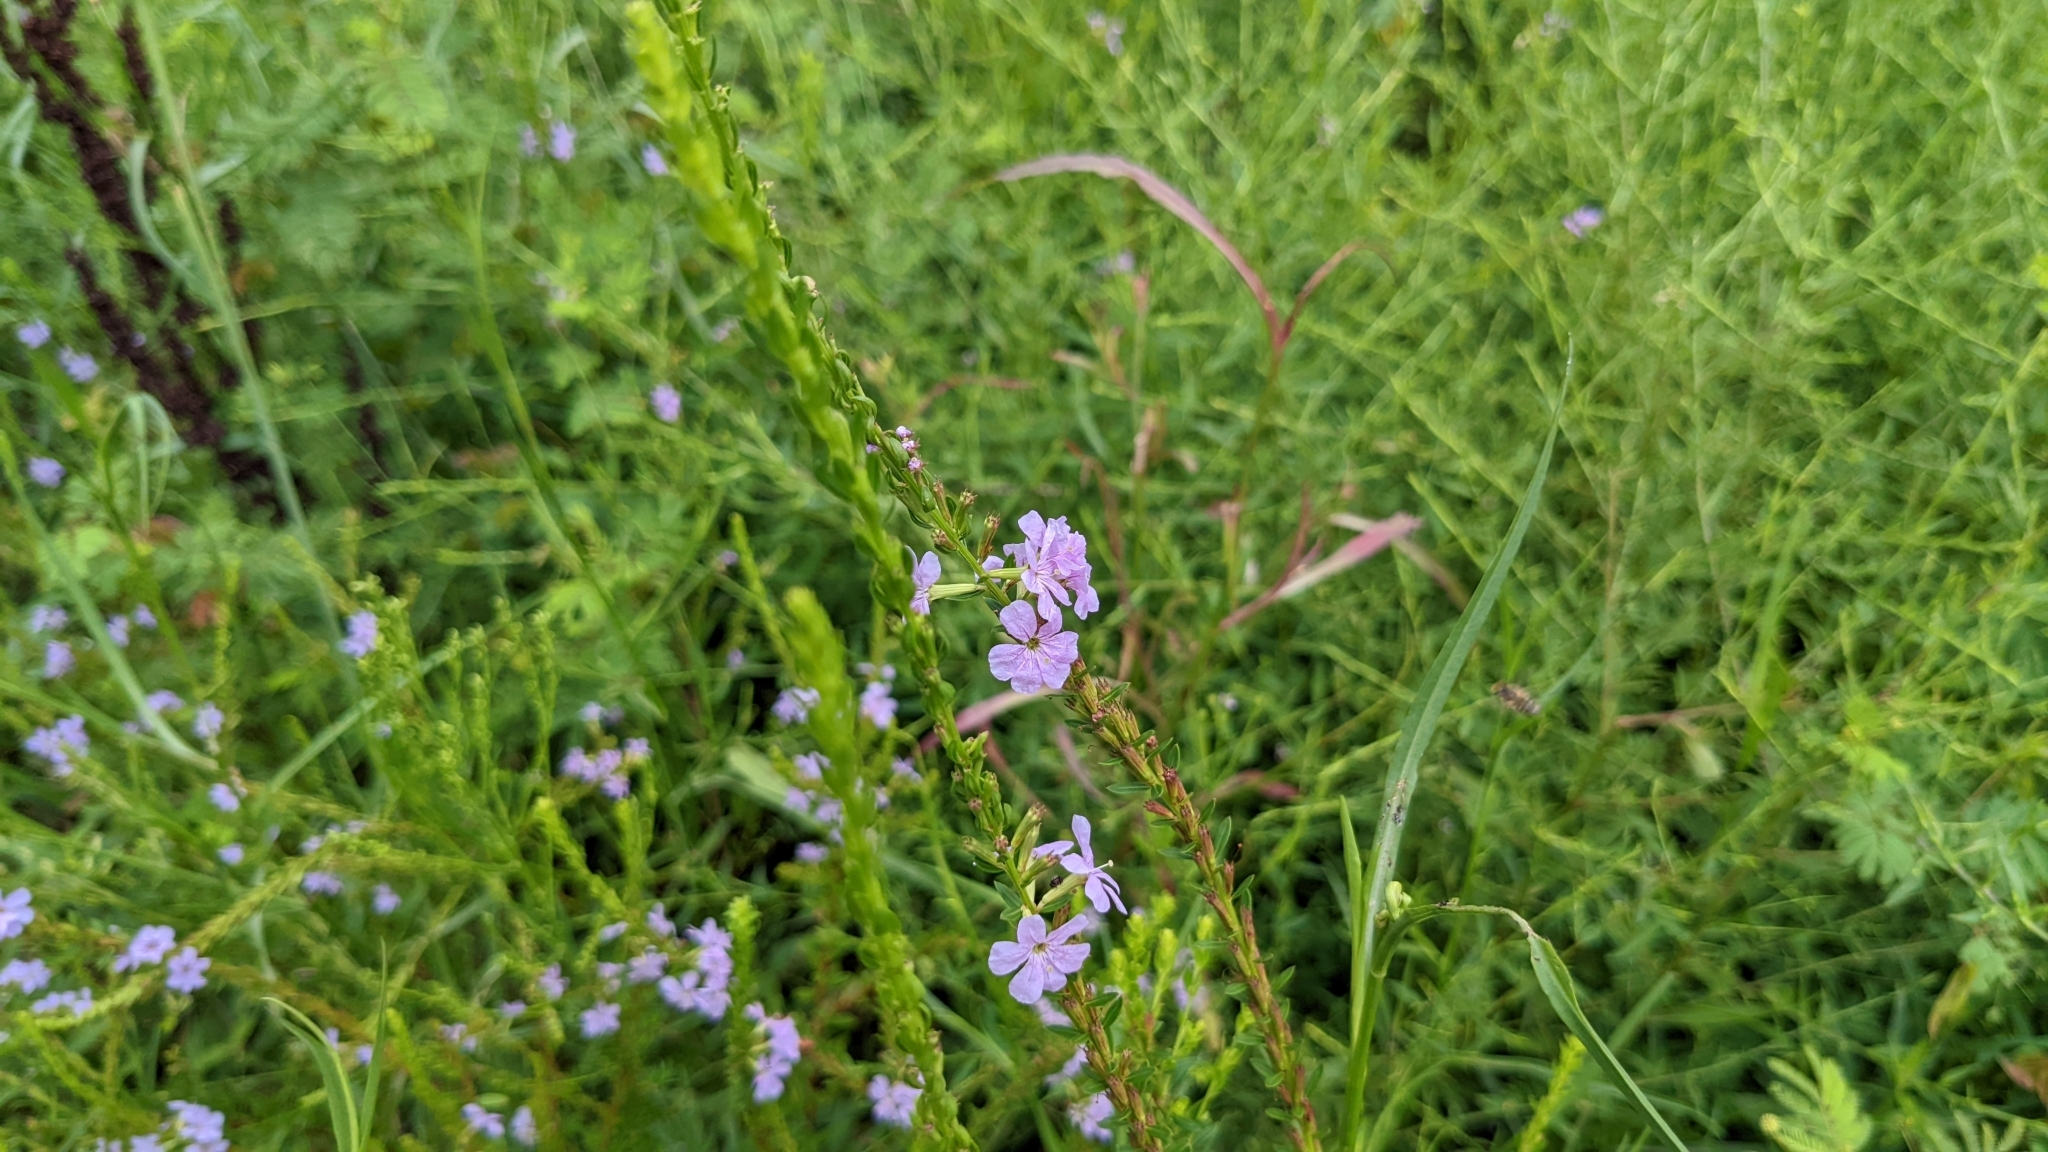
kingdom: Plantae
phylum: Tracheophyta
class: Magnoliopsida
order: Myrtales
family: Lythraceae
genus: Lythrum
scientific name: Lythrum alatum
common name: Winged loosestrife
